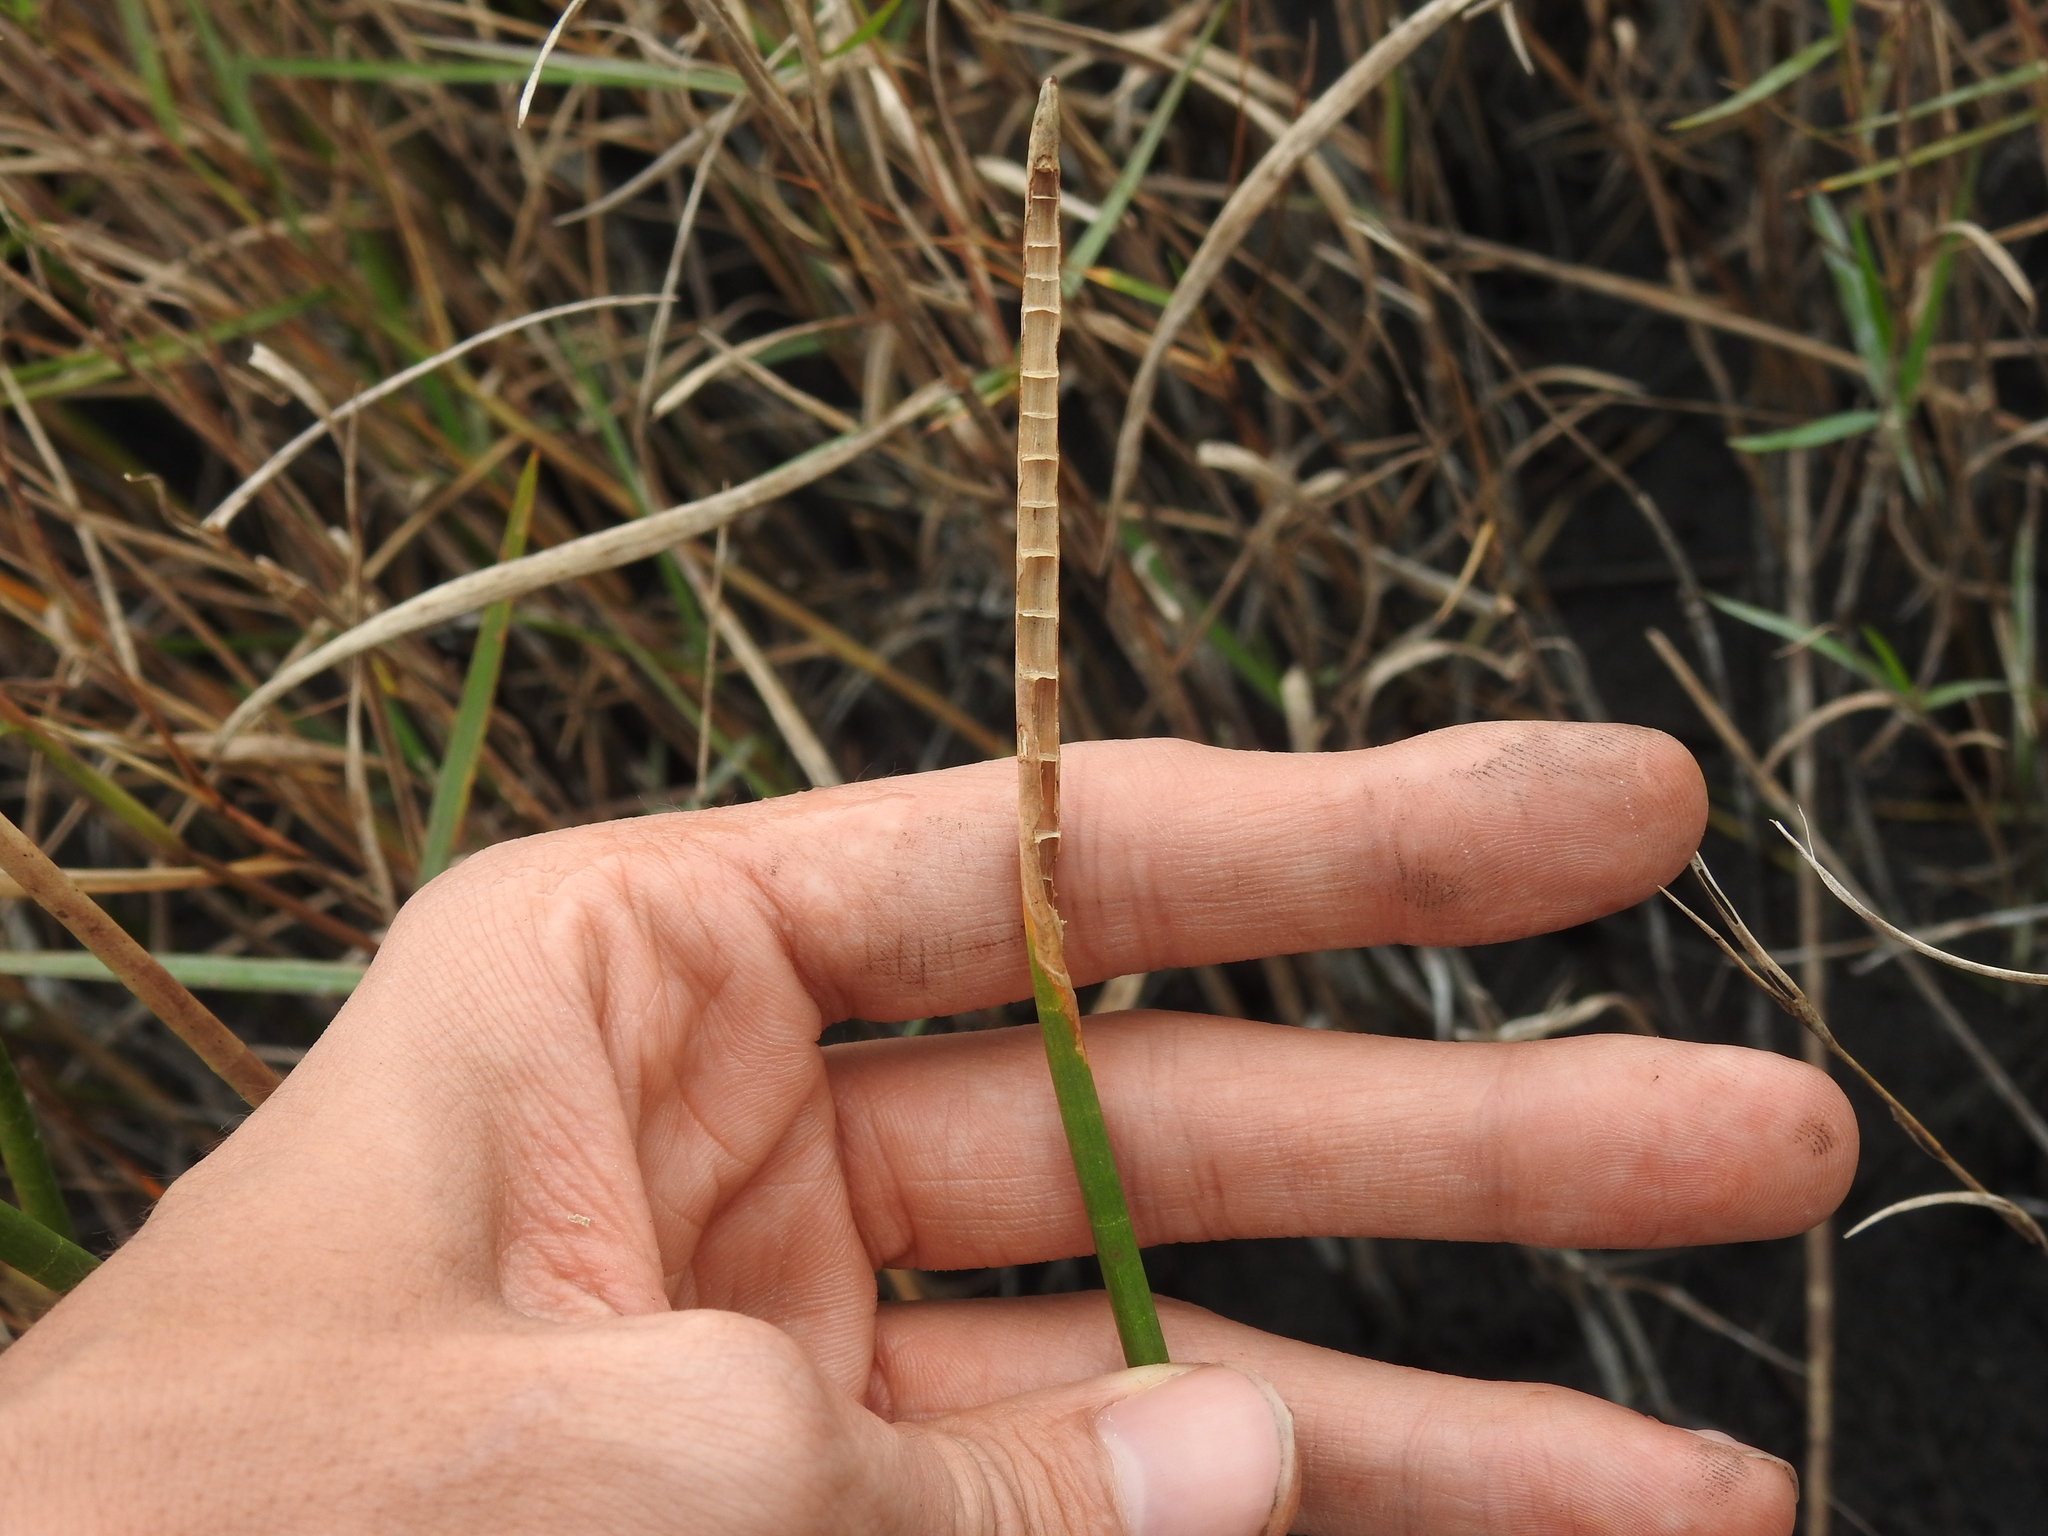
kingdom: Plantae
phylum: Tracheophyta
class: Liliopsida
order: Poales
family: Cyperaceae
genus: Eleocharis
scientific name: Eleocharis interstincta
